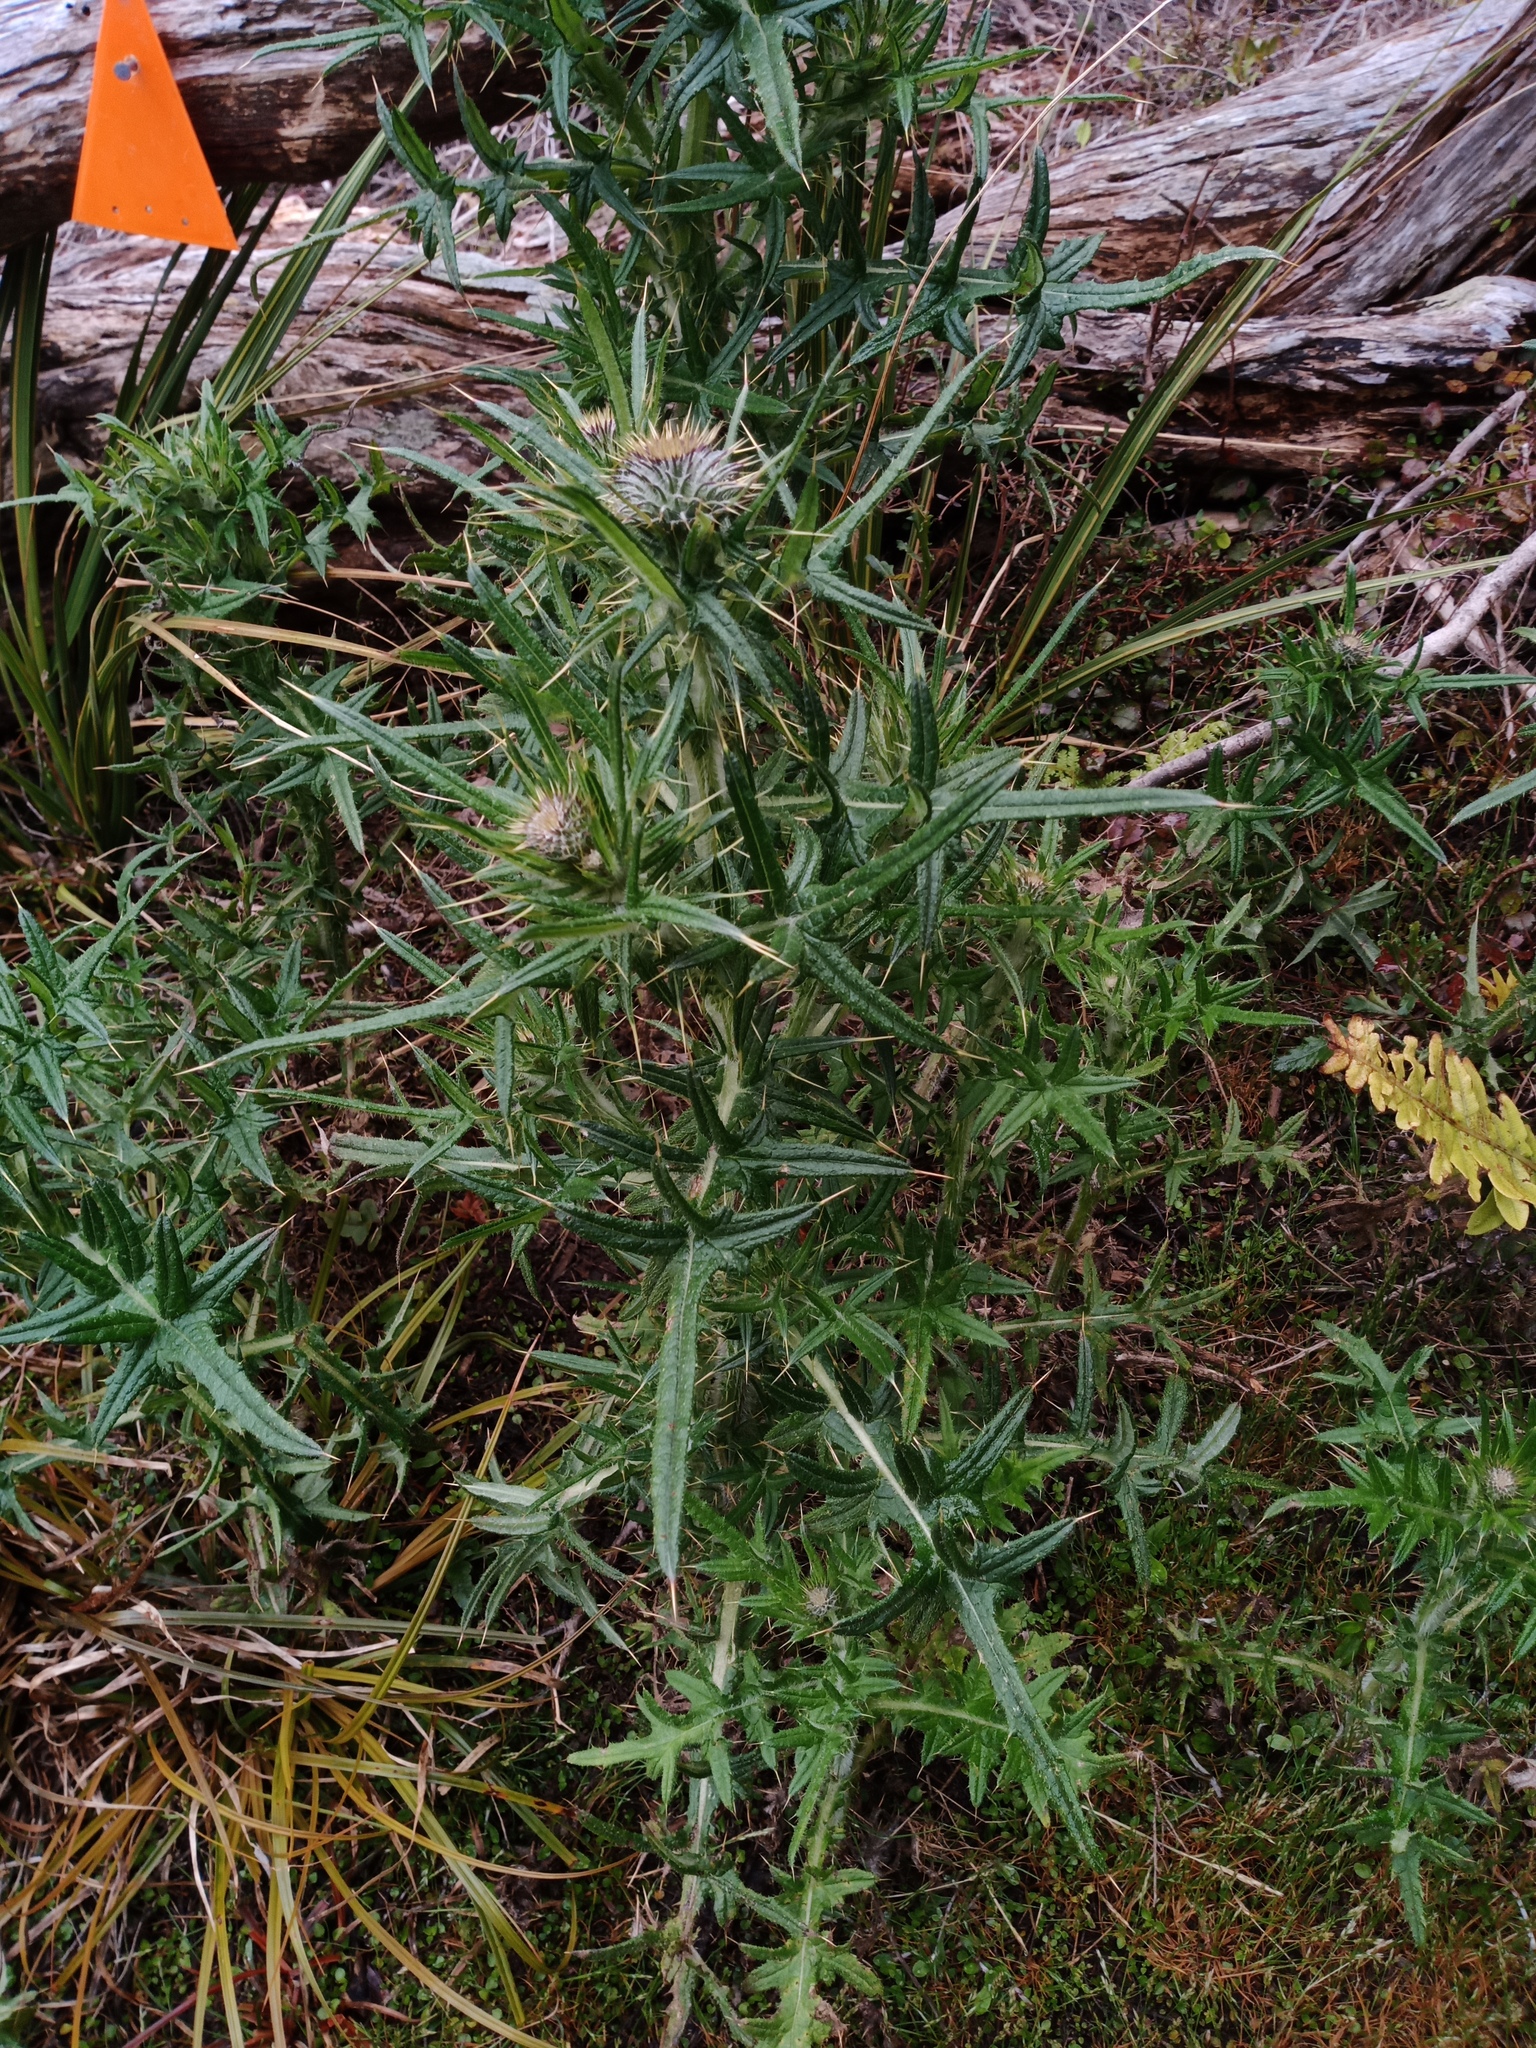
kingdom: Plantae
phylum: Tracheophyta
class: Magnoliopsida
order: Asterales
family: Asteraceae
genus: Cirsium
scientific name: Cirsium vulgare
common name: Bull thistle
